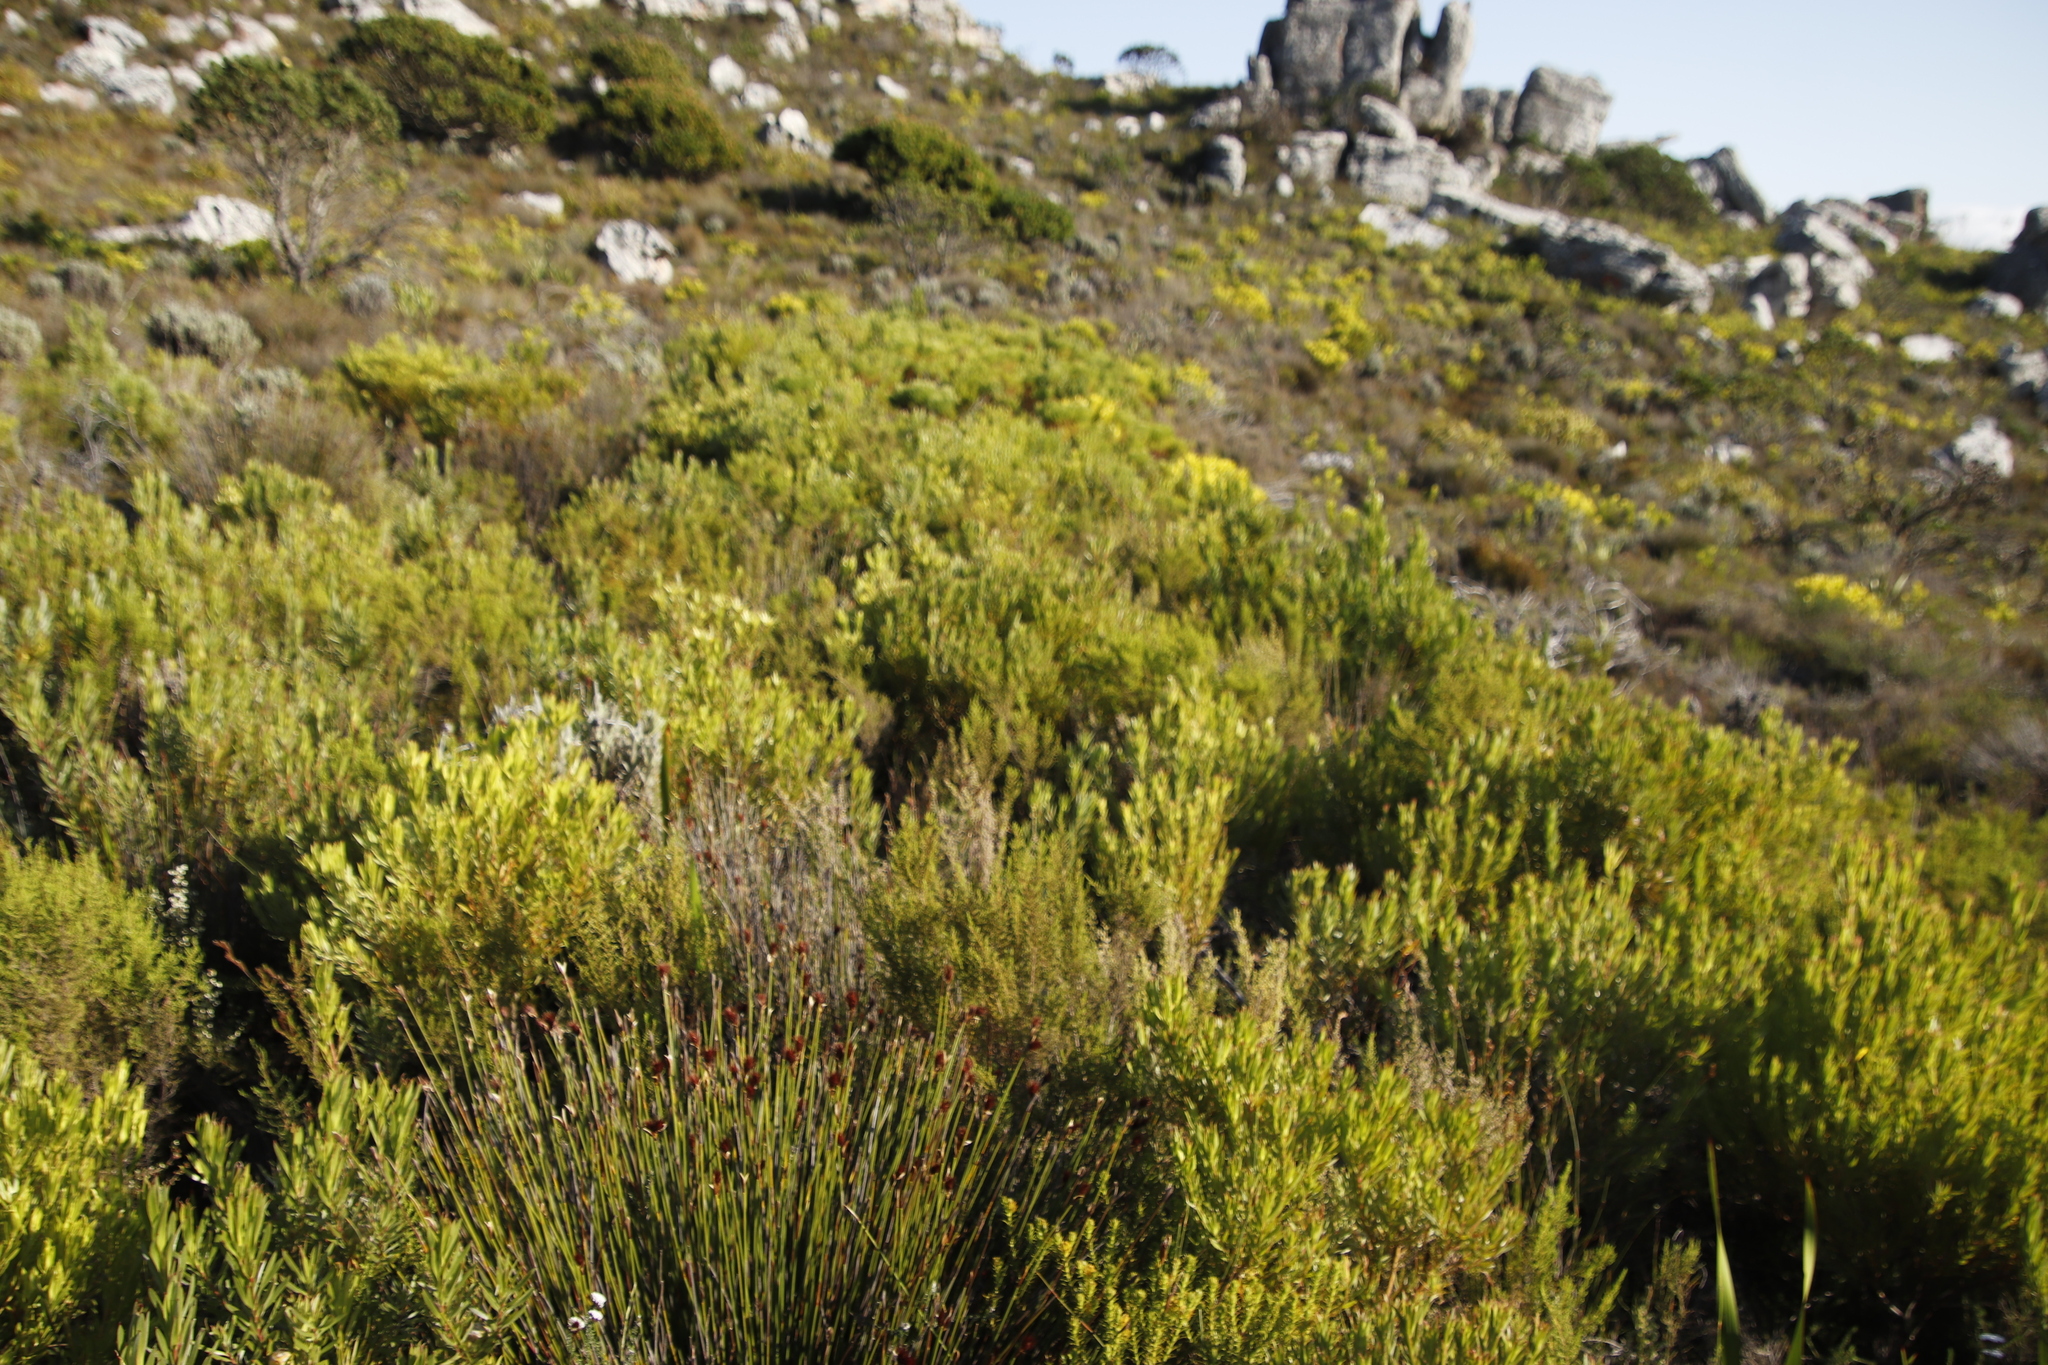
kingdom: Plantae
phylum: Tracheophyta
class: Magnoliopsida
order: Proteales
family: Proteaceae
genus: Leucadendron
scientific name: Leucadendron xanthoconus
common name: Sickle-leaf conebush
